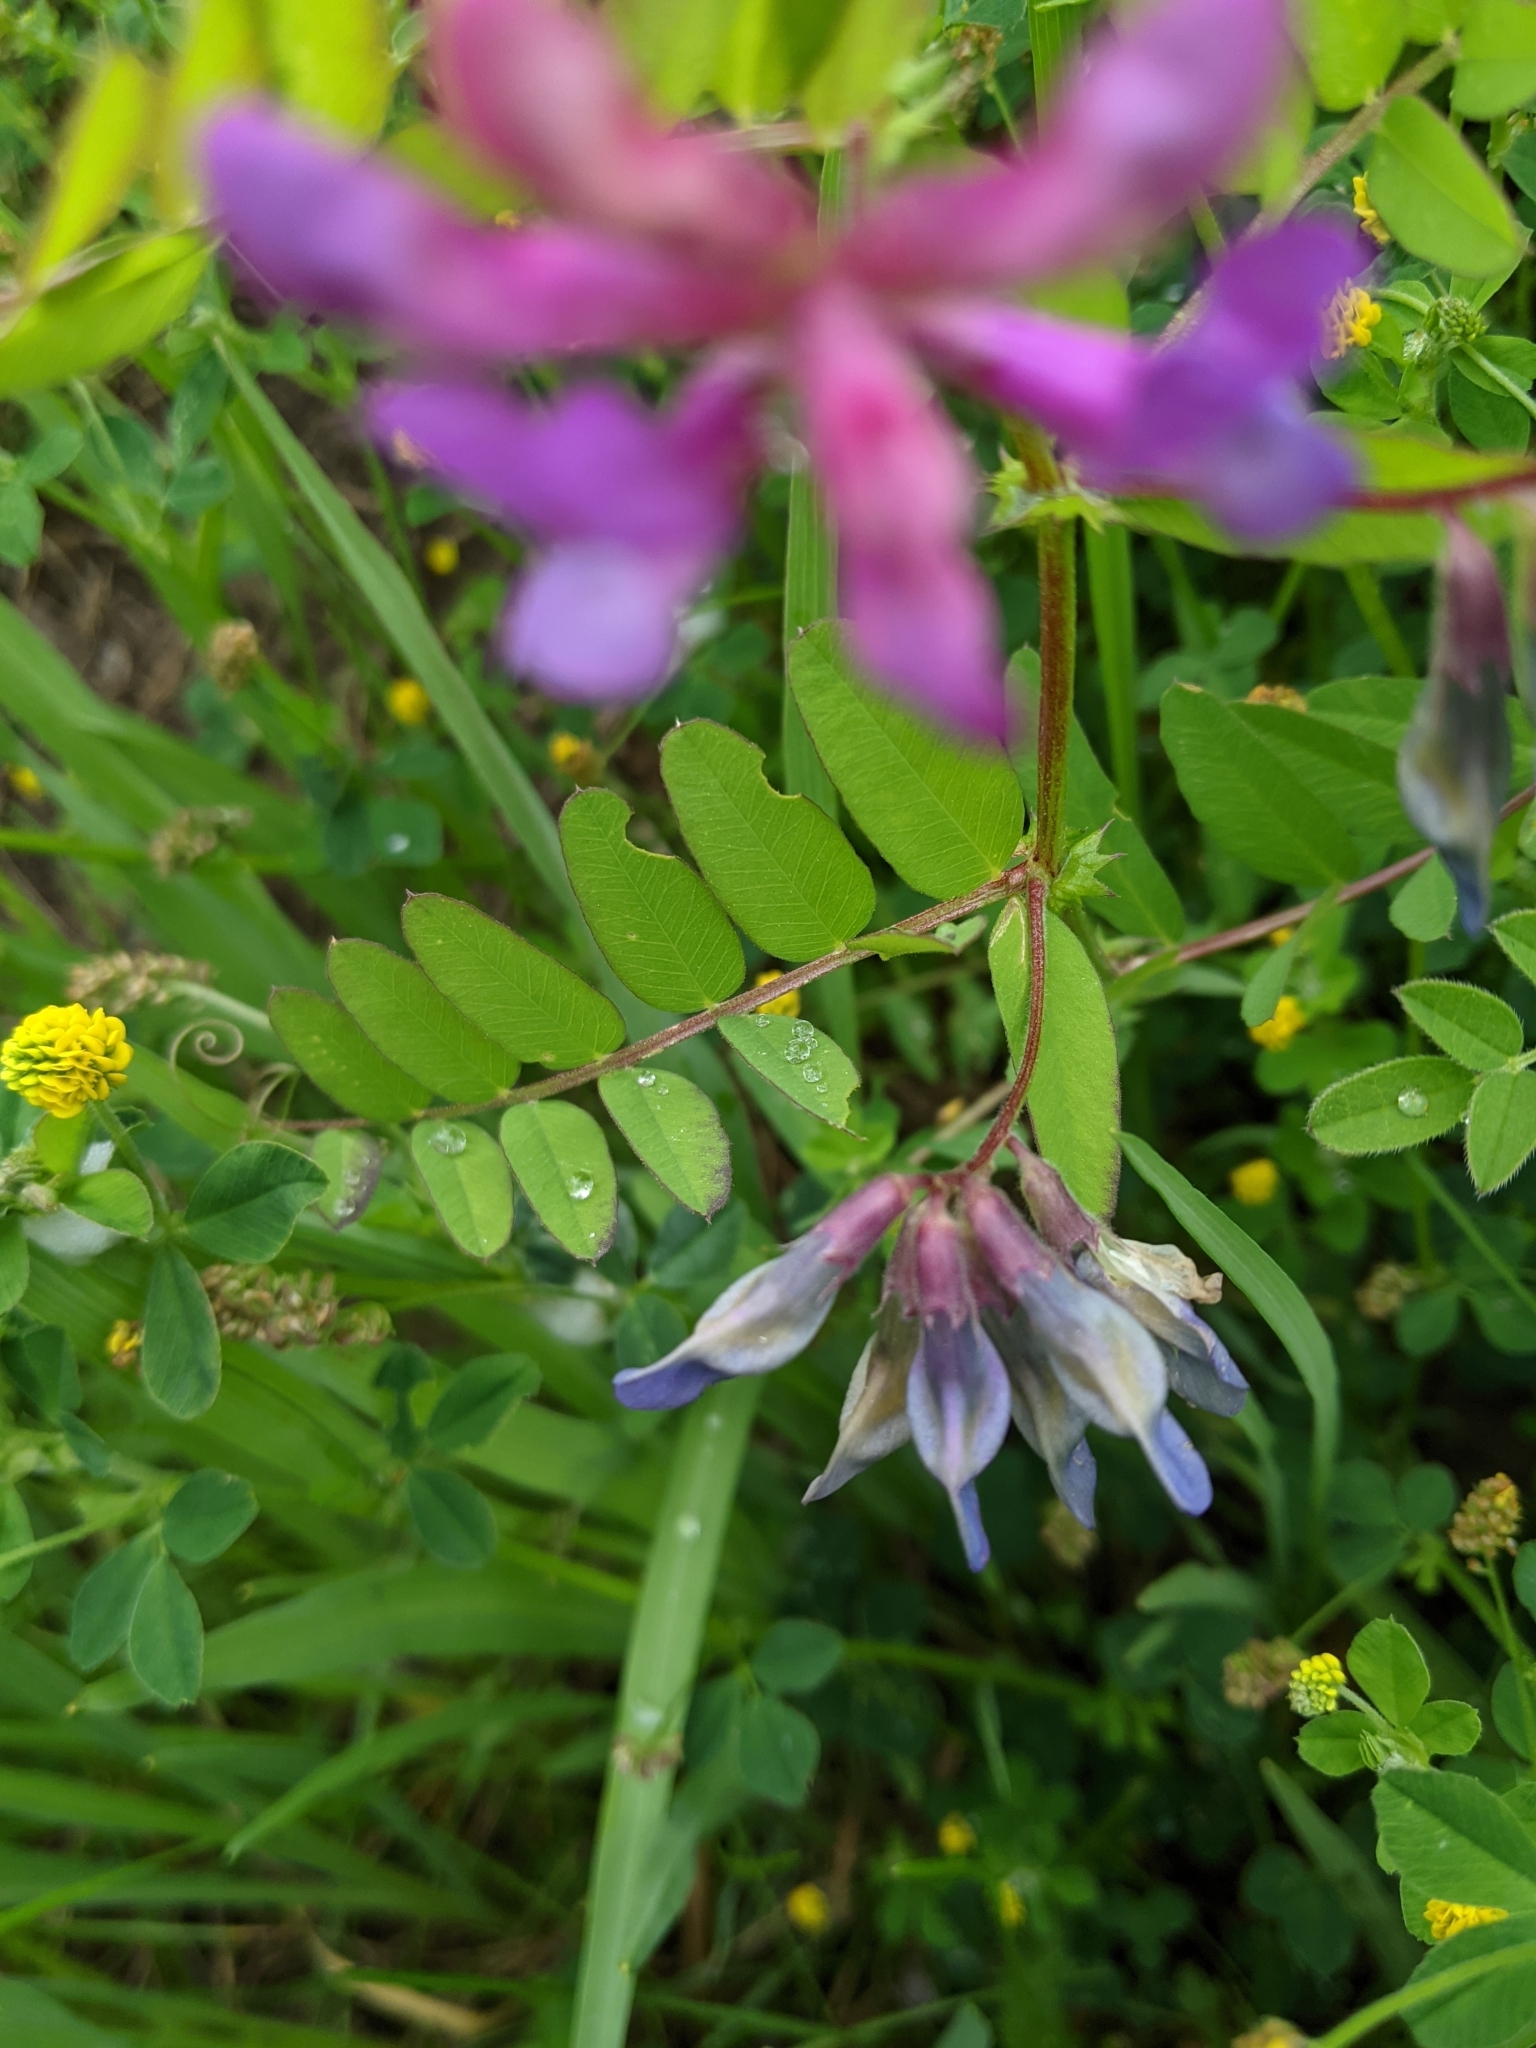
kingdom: Plantae
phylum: Tracheophyta
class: Magnoliopsida
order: Fabales
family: Fabaceae
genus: Vicia
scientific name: Vicia americana
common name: American vetch
